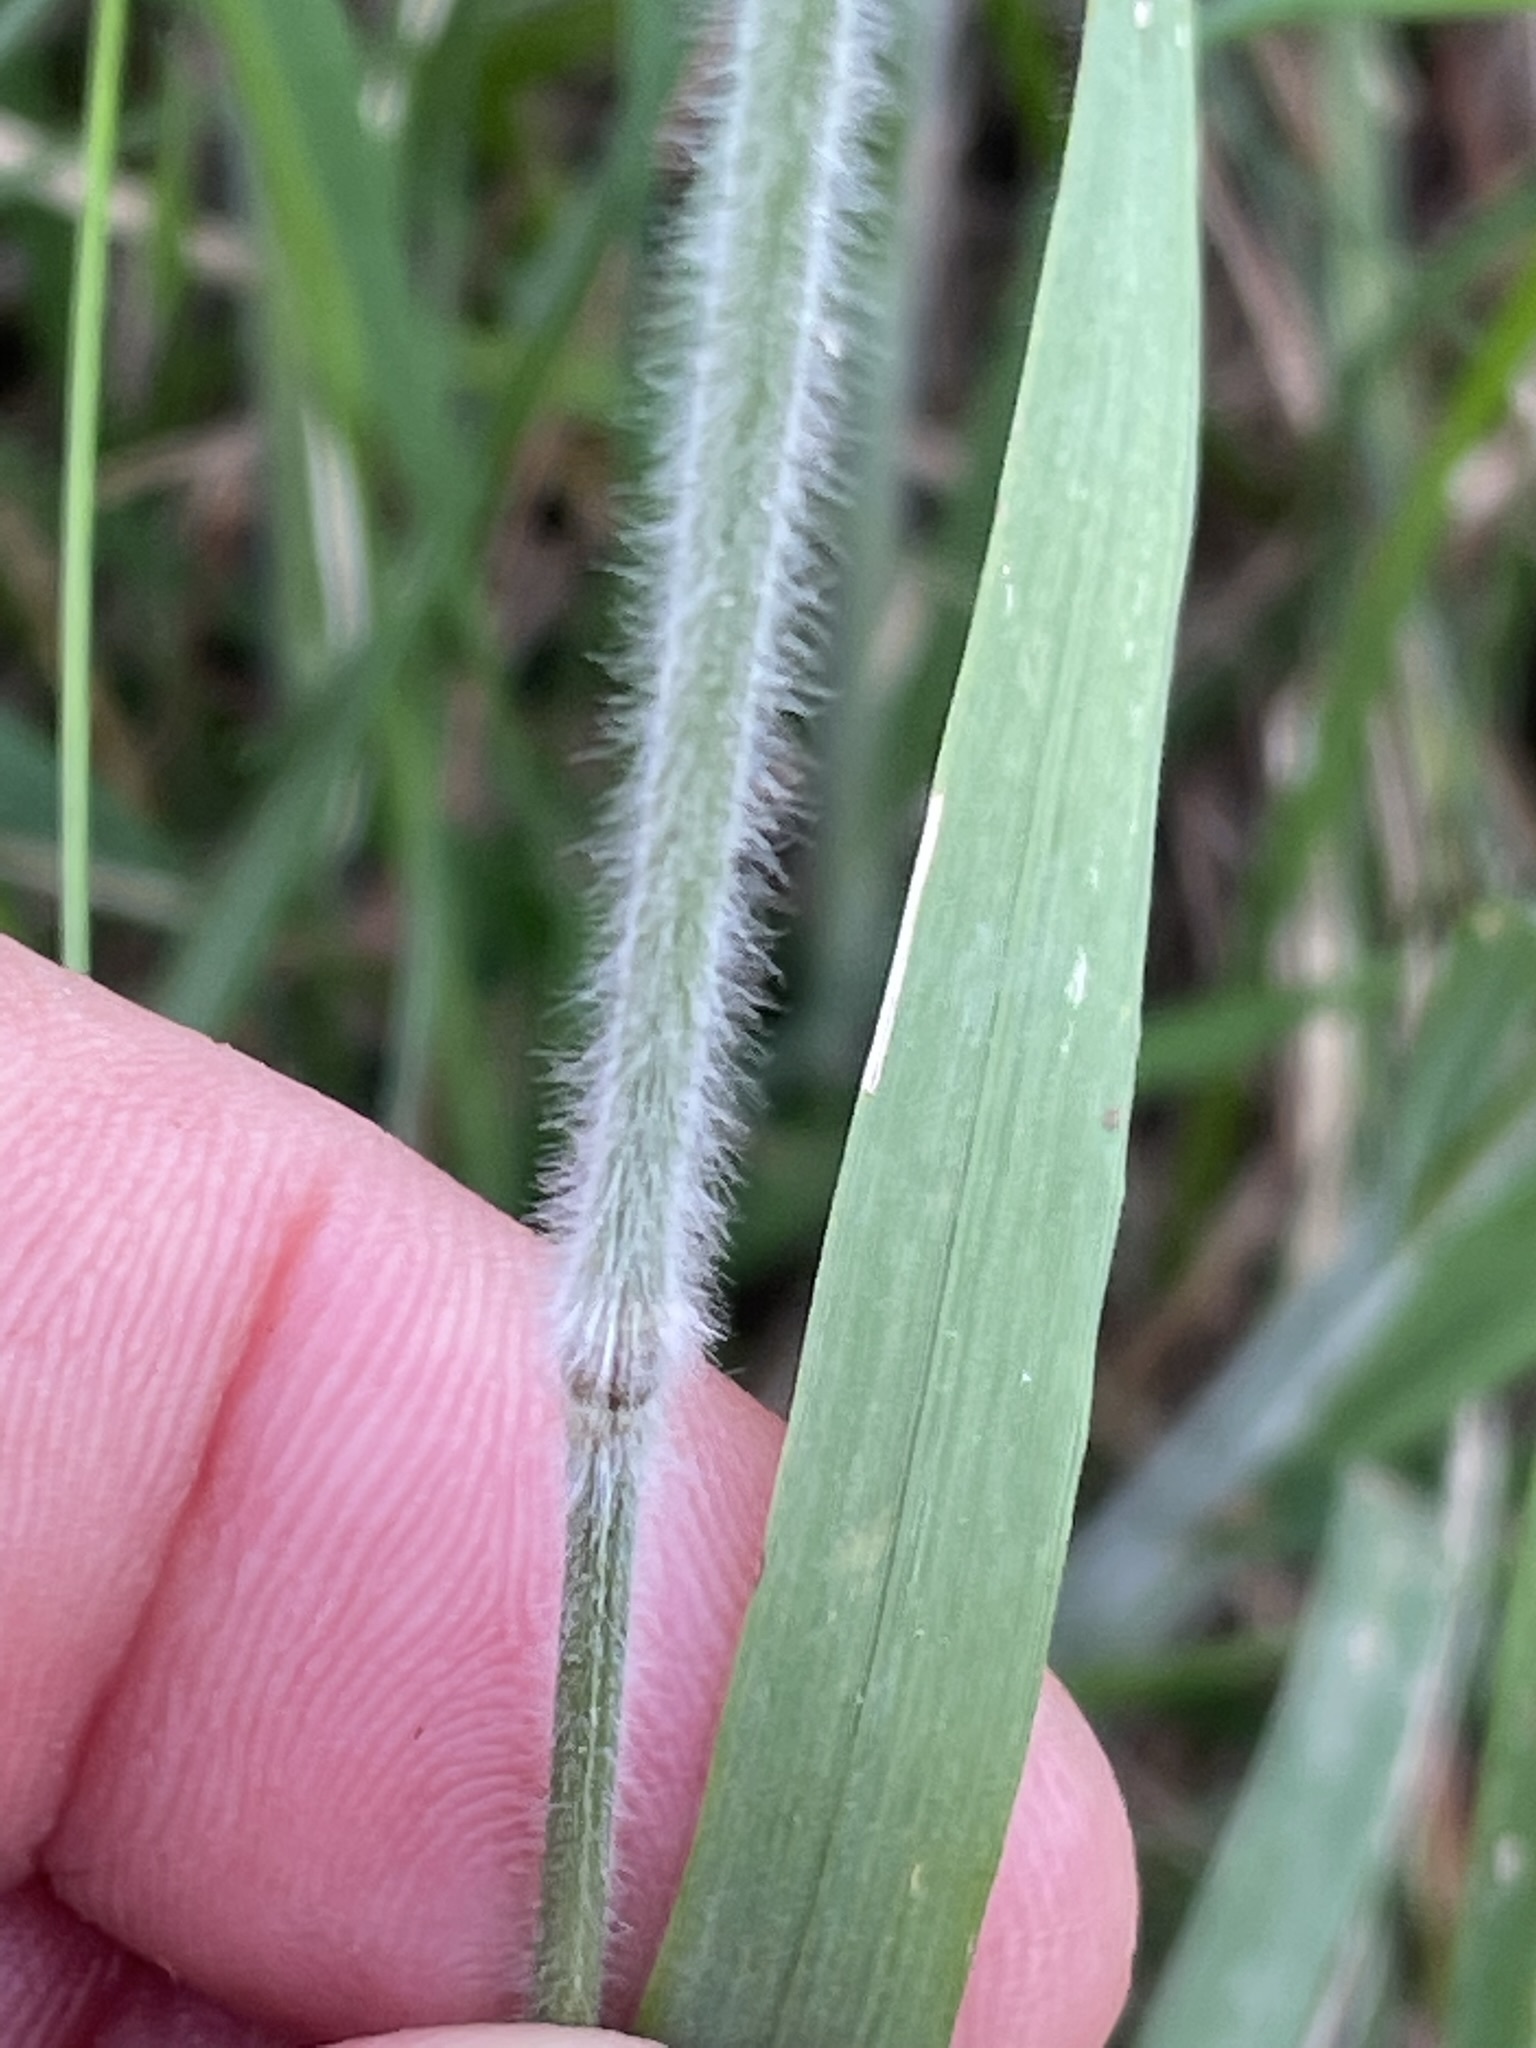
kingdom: Plantae
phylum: Tracheophyta
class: Liliopsida
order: Poales
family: Poaceae
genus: Trisetum
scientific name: Trisetum flavescens
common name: Yellow oat-grass
